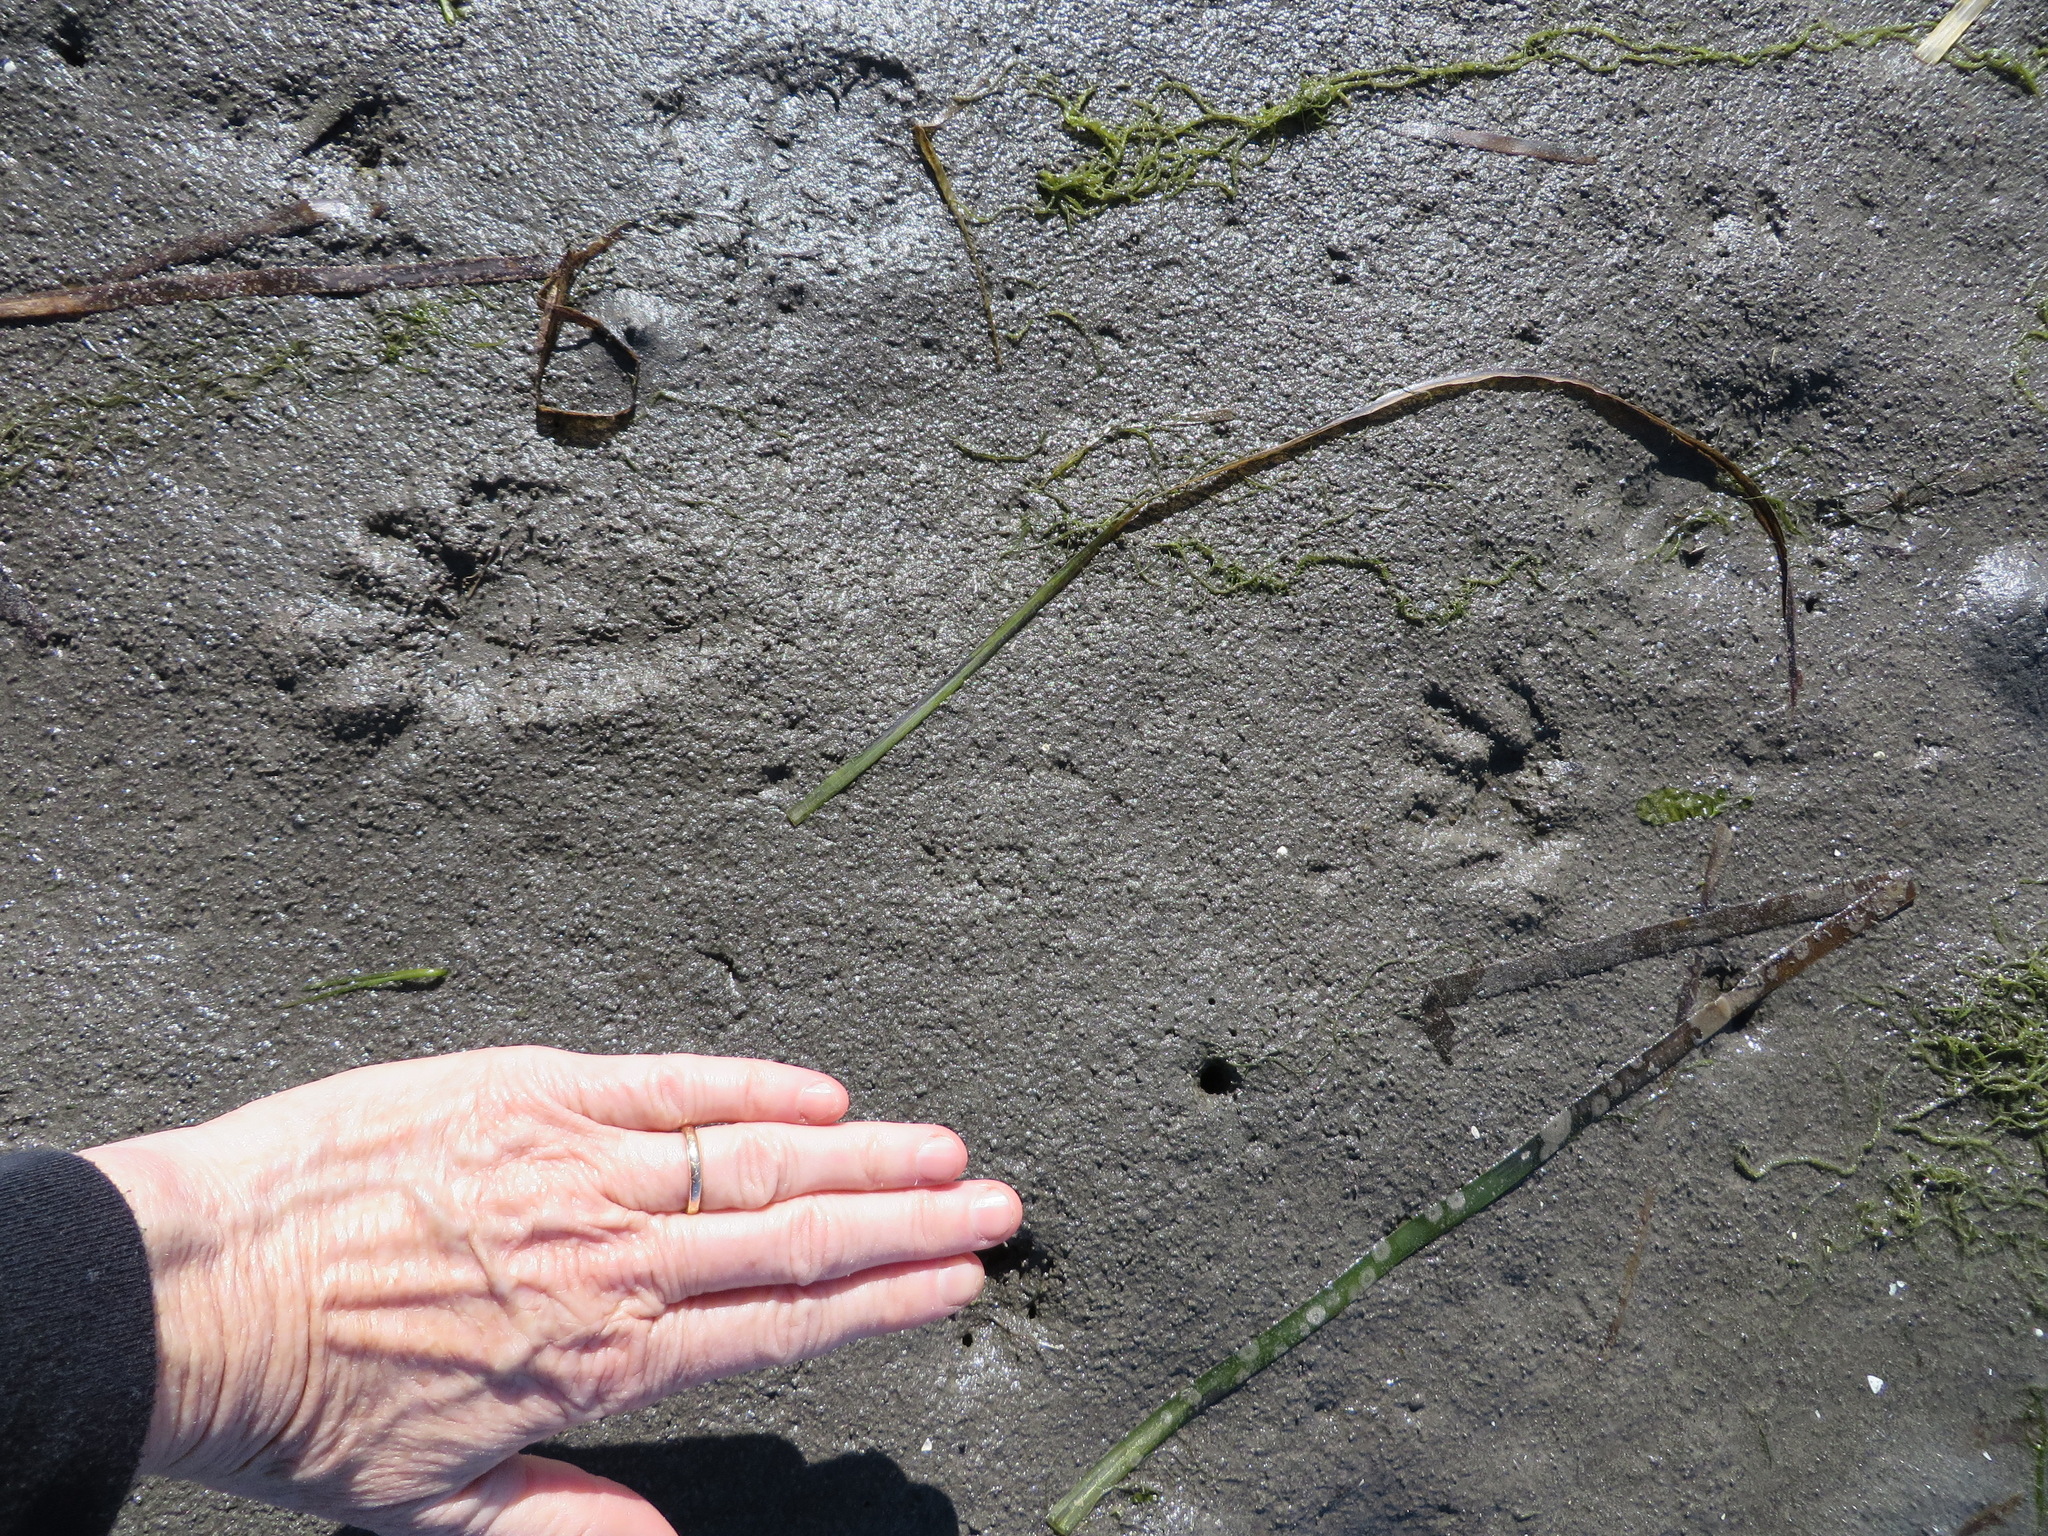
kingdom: Animalia
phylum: Chordata
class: Mammalia
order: Carnivora
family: Procyonidae
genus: Procyon
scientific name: Procyon lotor
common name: Raccoon
